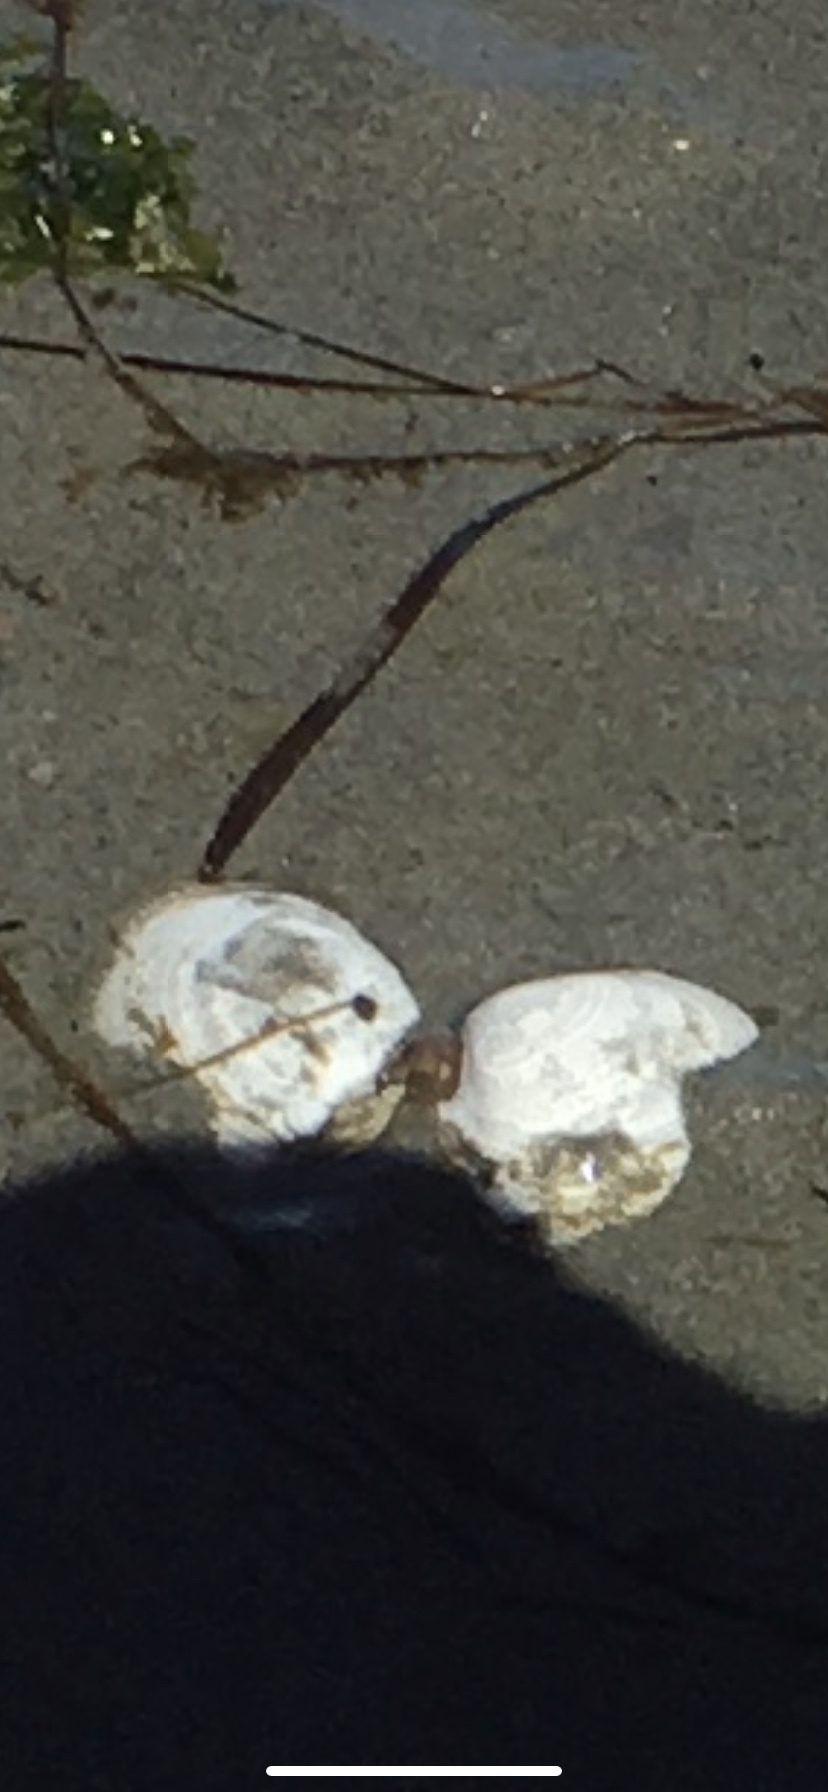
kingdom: Animalia
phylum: Mollusca
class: Bivalvia
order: Cardiida
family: Tellinidae
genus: Rexithaerus
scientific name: Rexithaerus secta
